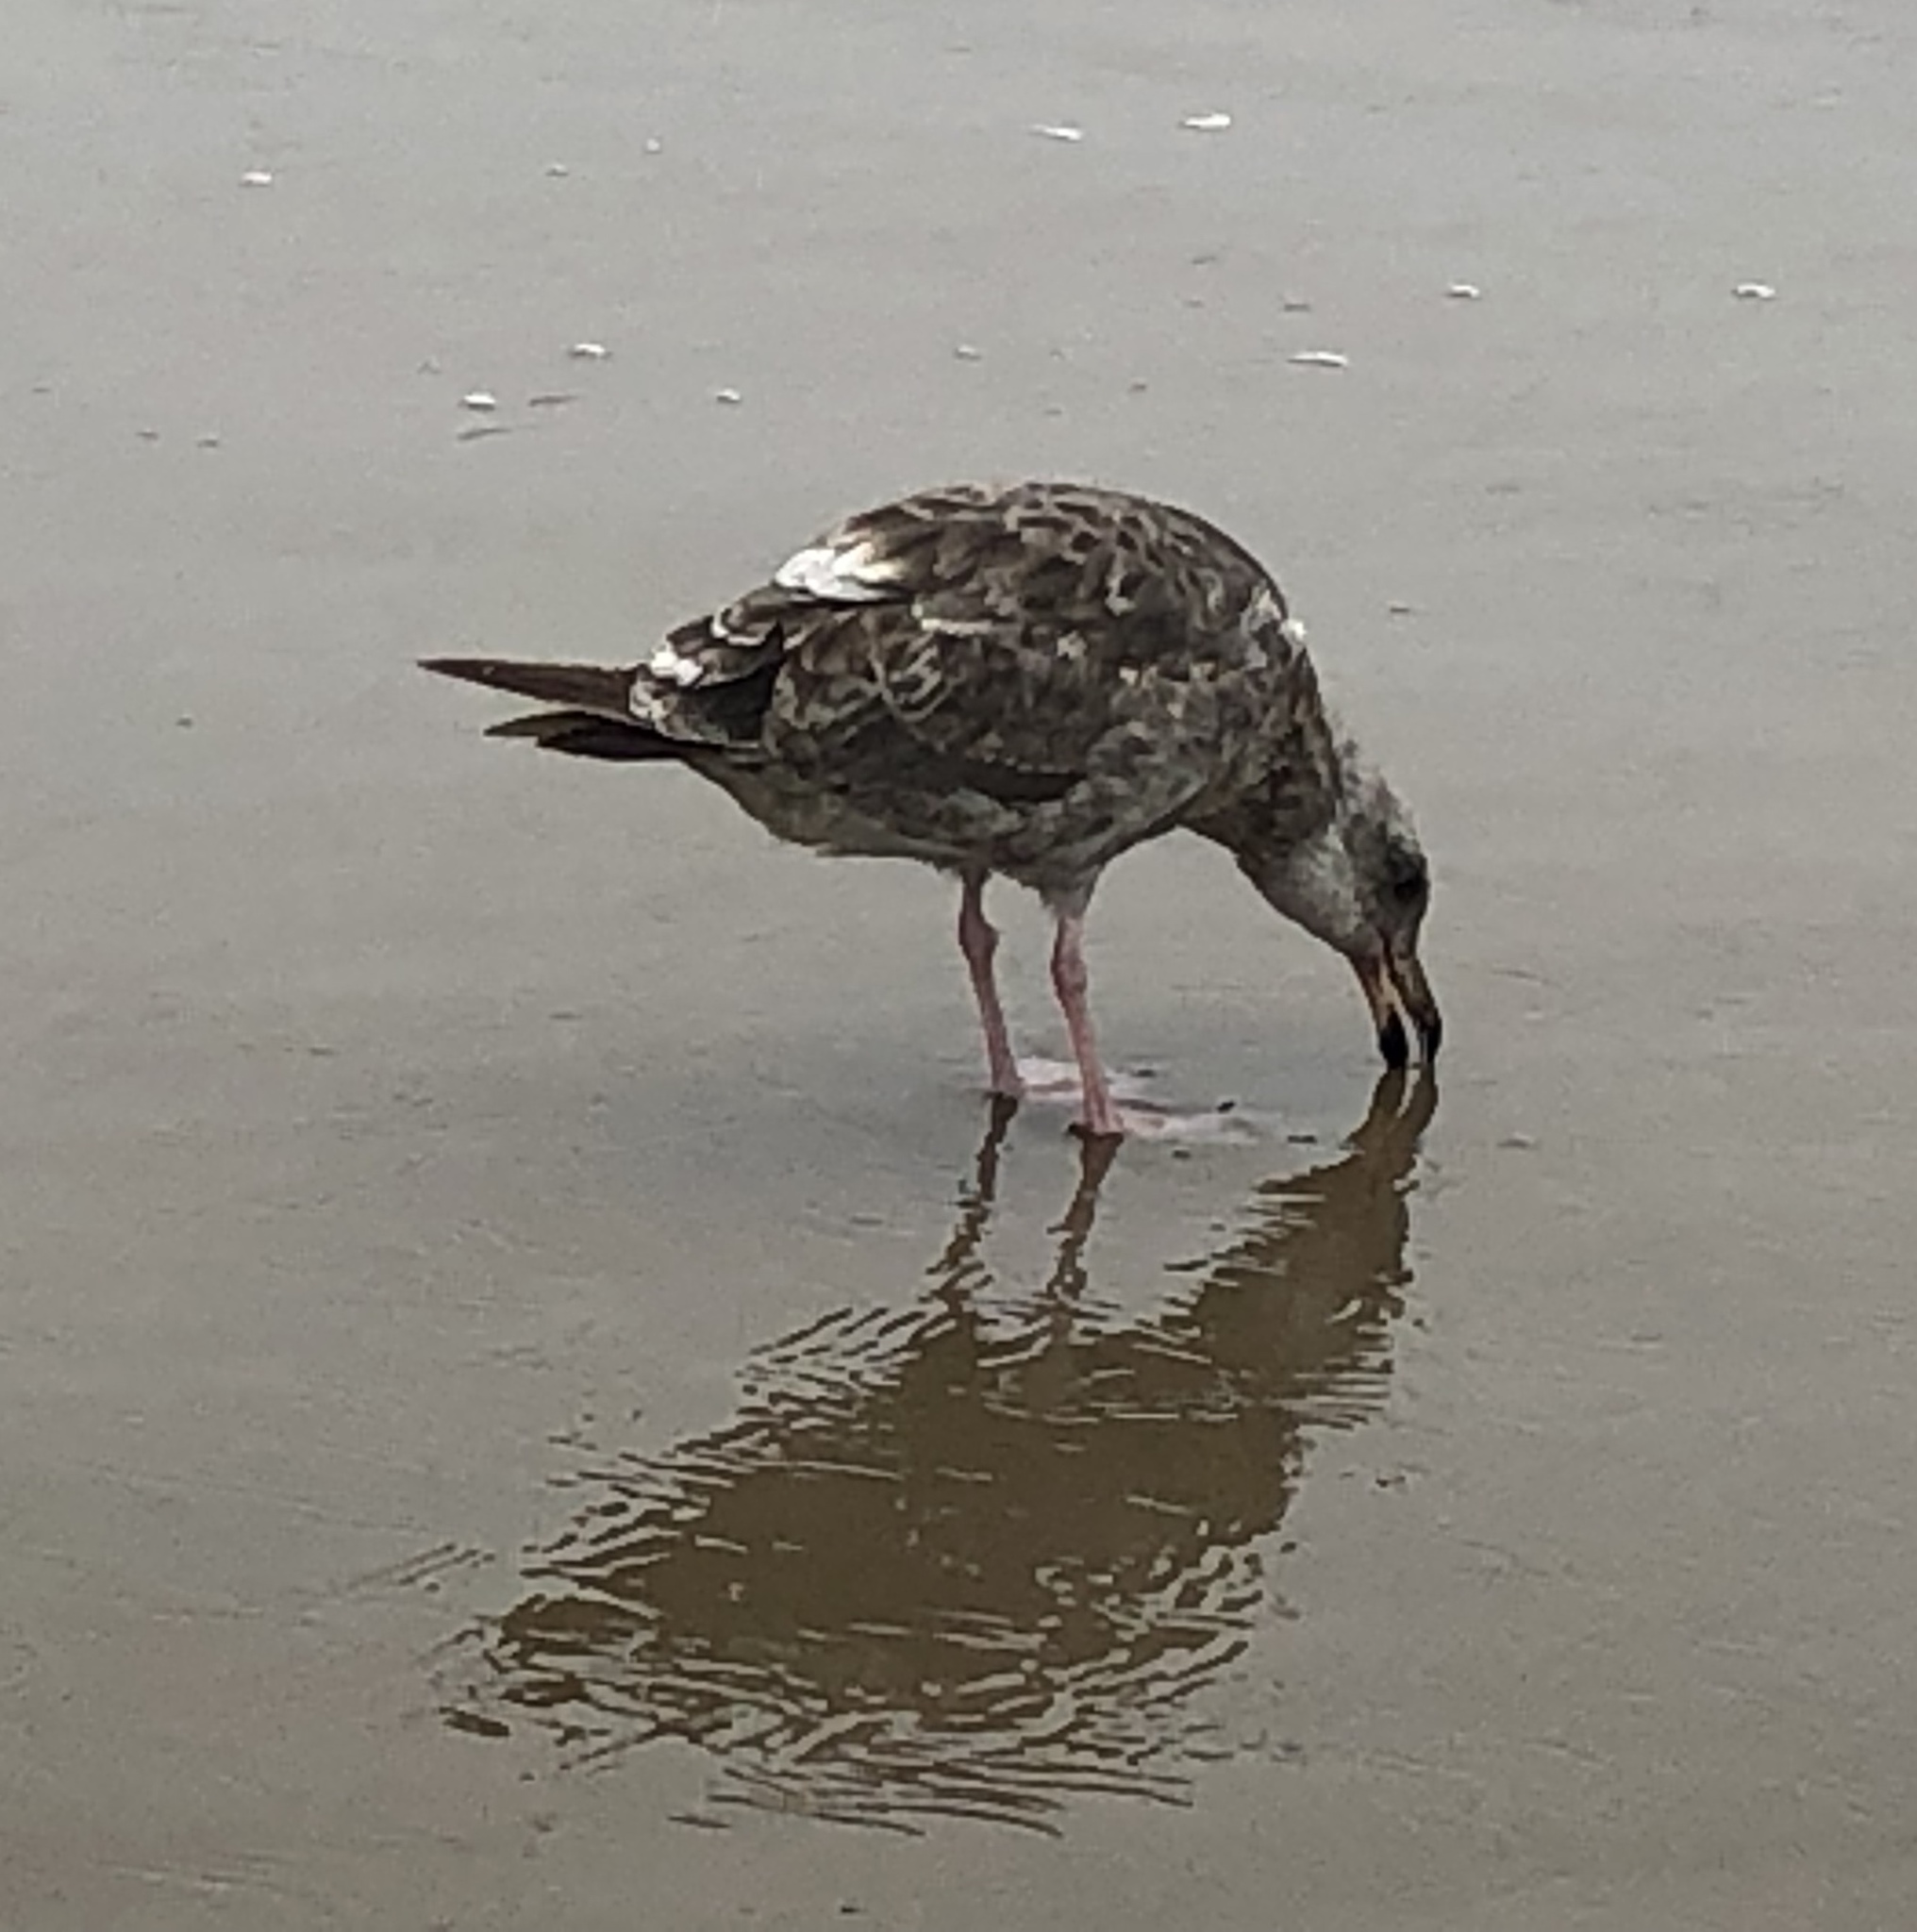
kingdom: Animalia
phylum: Chordata
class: Aves
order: Charadriiformes
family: Laridae
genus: Larus
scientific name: Larus occidentalis
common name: Western gull
